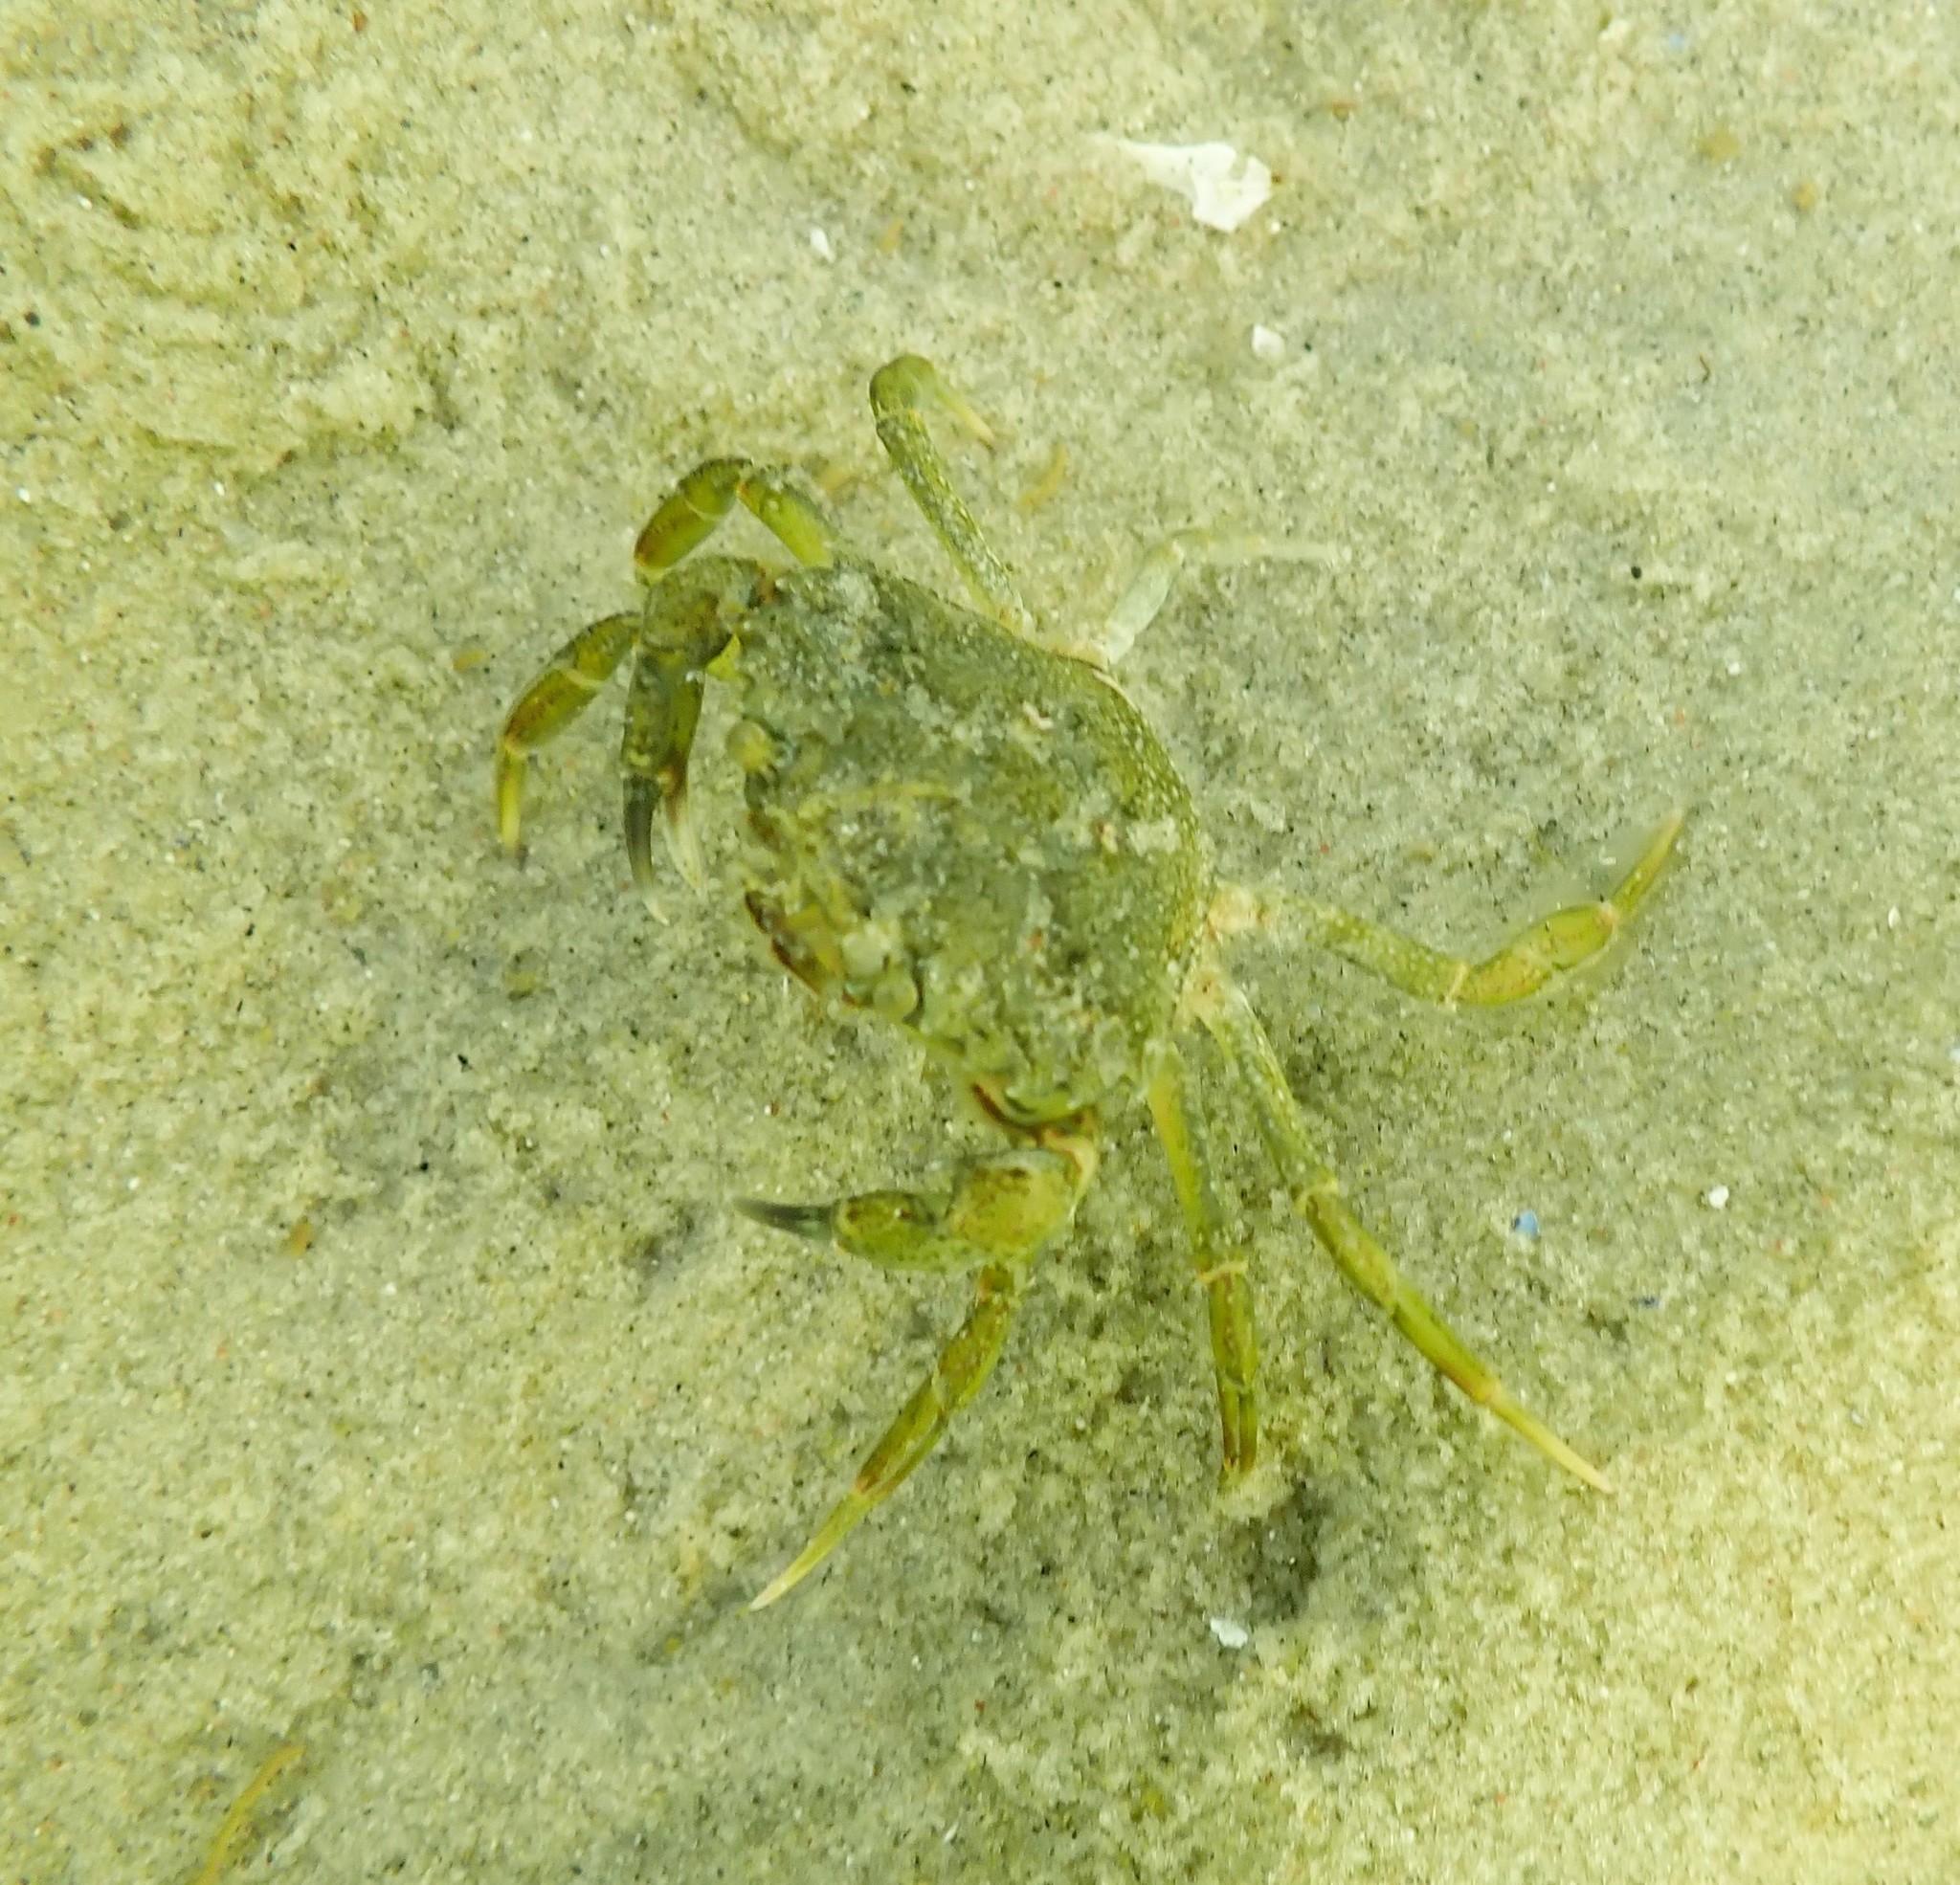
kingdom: Animalia
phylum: Arthropoda
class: Malacostraca
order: Decapoda
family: Carcinidae
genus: Carcinus
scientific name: Carcinus maenas
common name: European green crab
